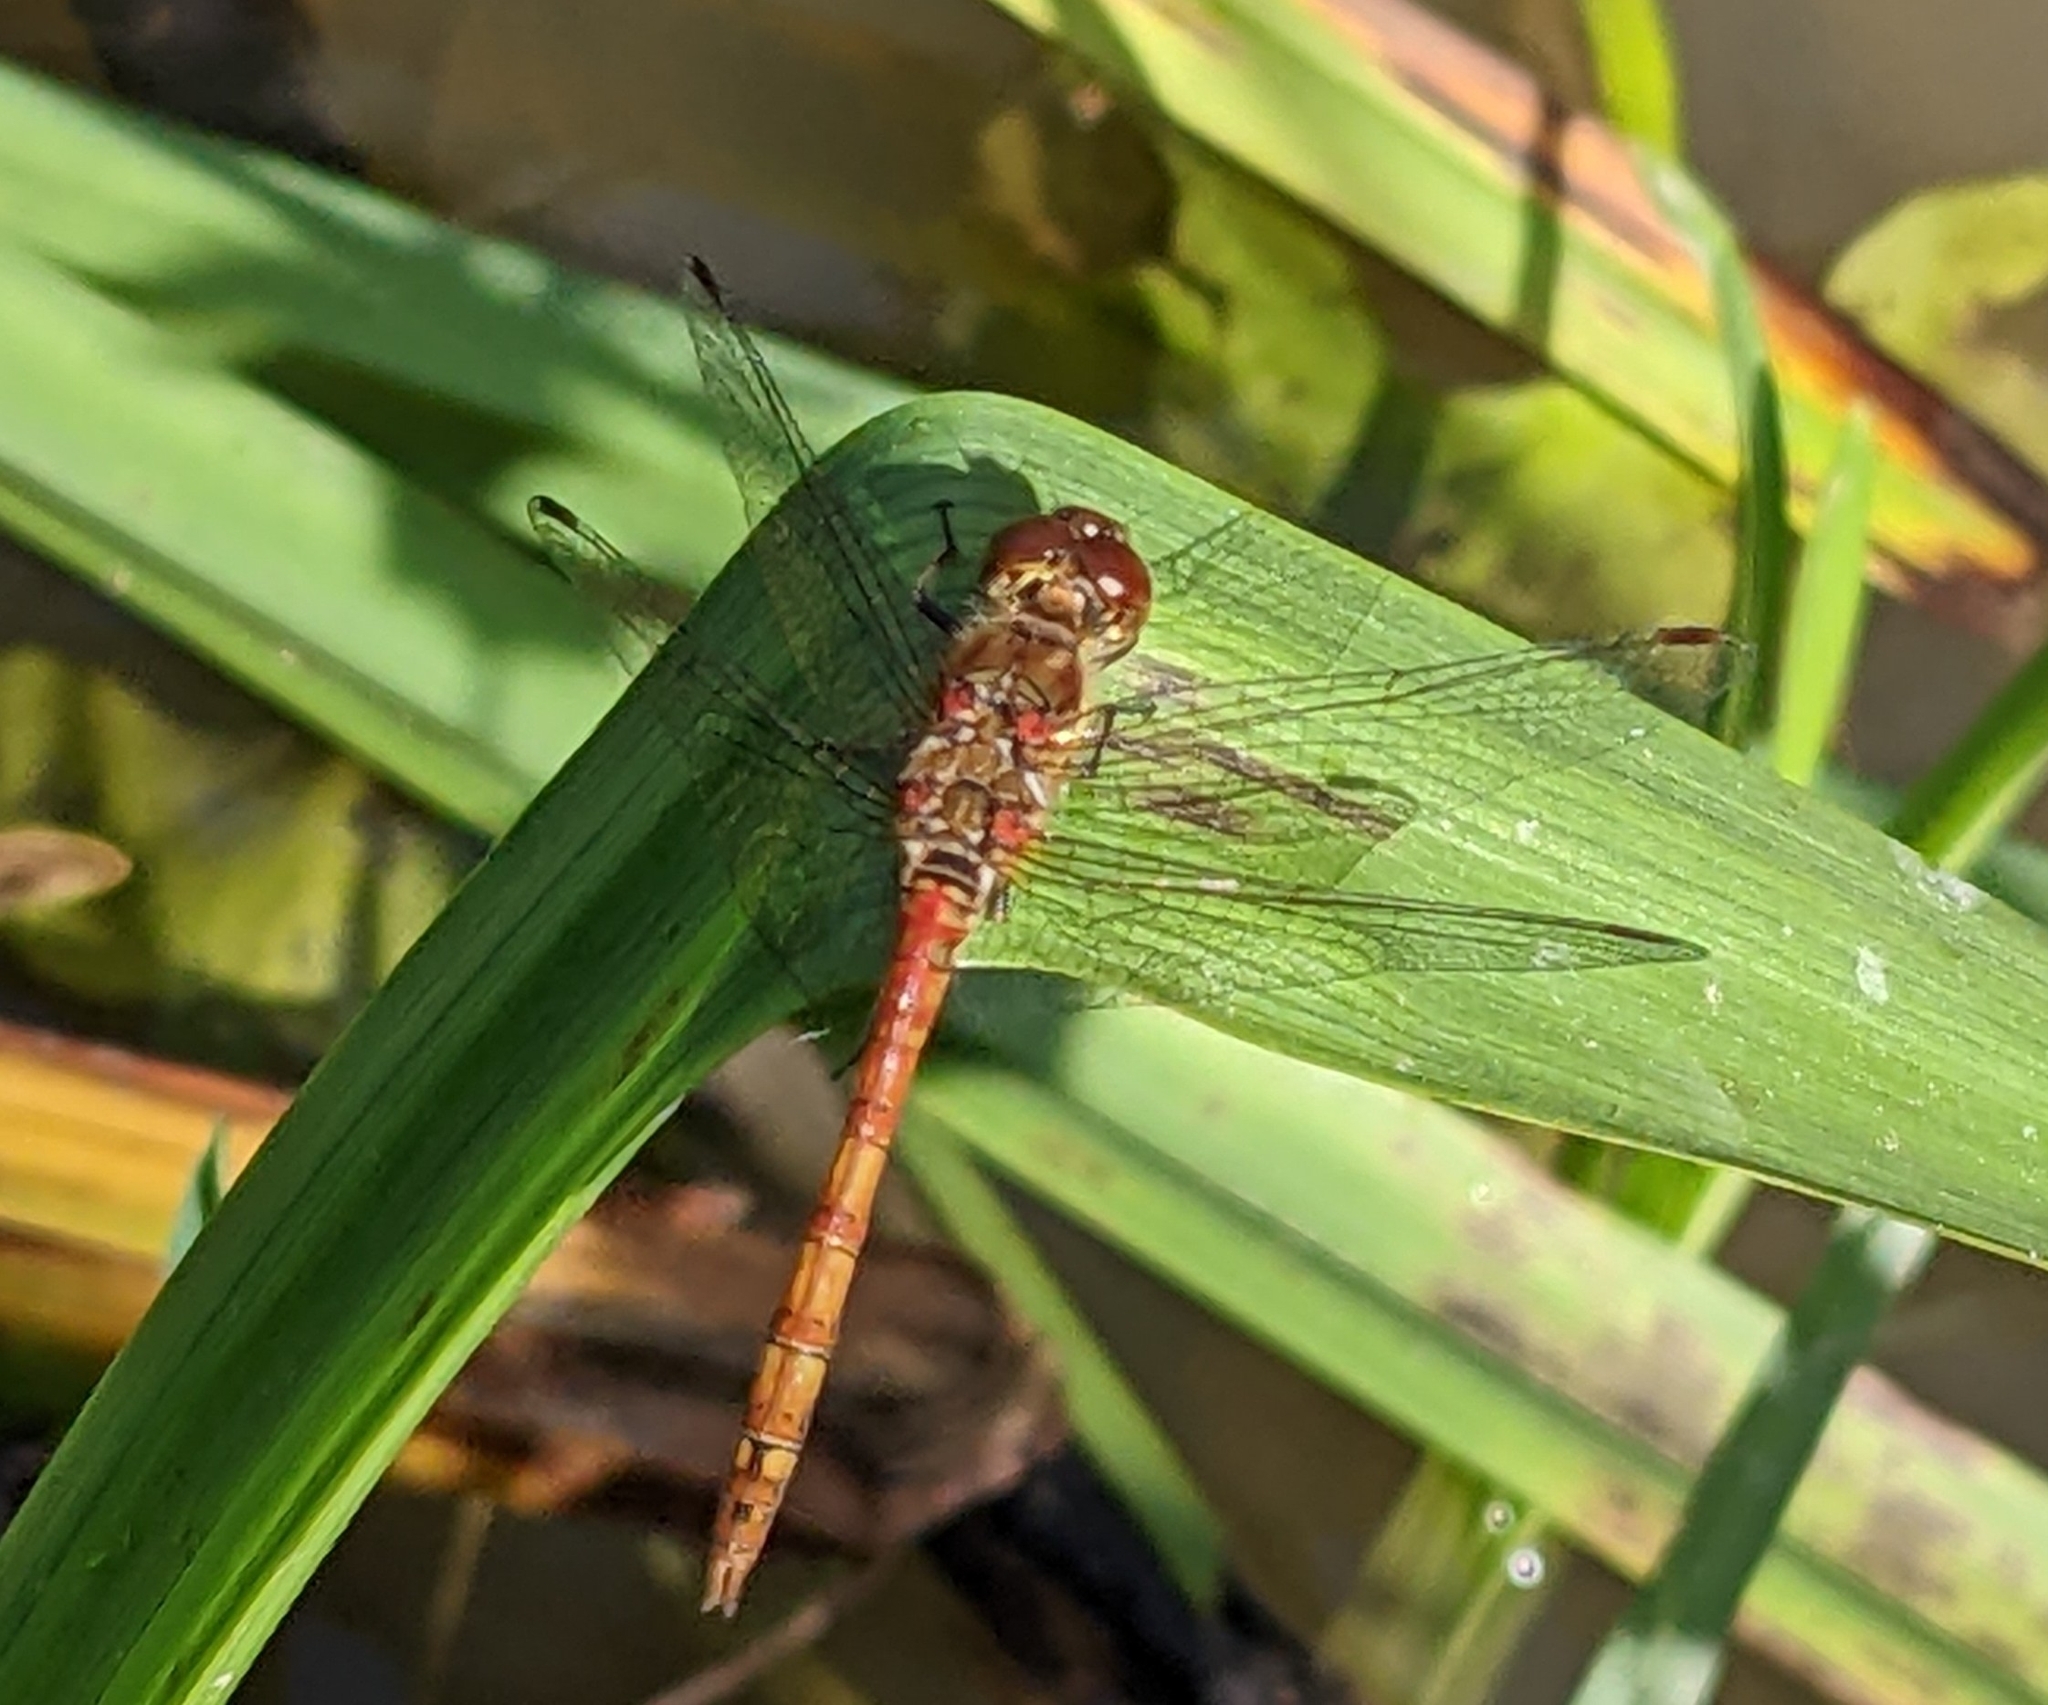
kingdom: Animalia
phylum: Arthropoda
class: Insecta
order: Odonata
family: Libellulidae
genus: Sympetrum
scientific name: Sympetrum striolatum
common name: Common darter
